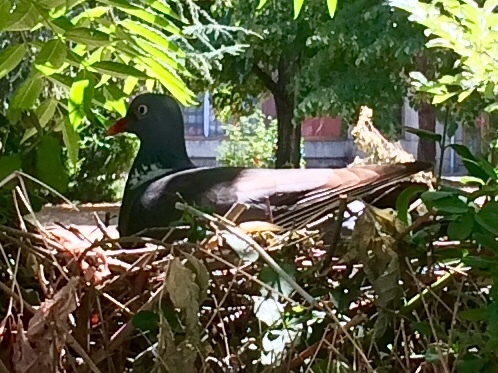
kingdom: Animalia
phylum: Chordata
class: Aves
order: Columbiformes
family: Columbidae
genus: Columba
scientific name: Columba palumbus
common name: Common wood pigeon
